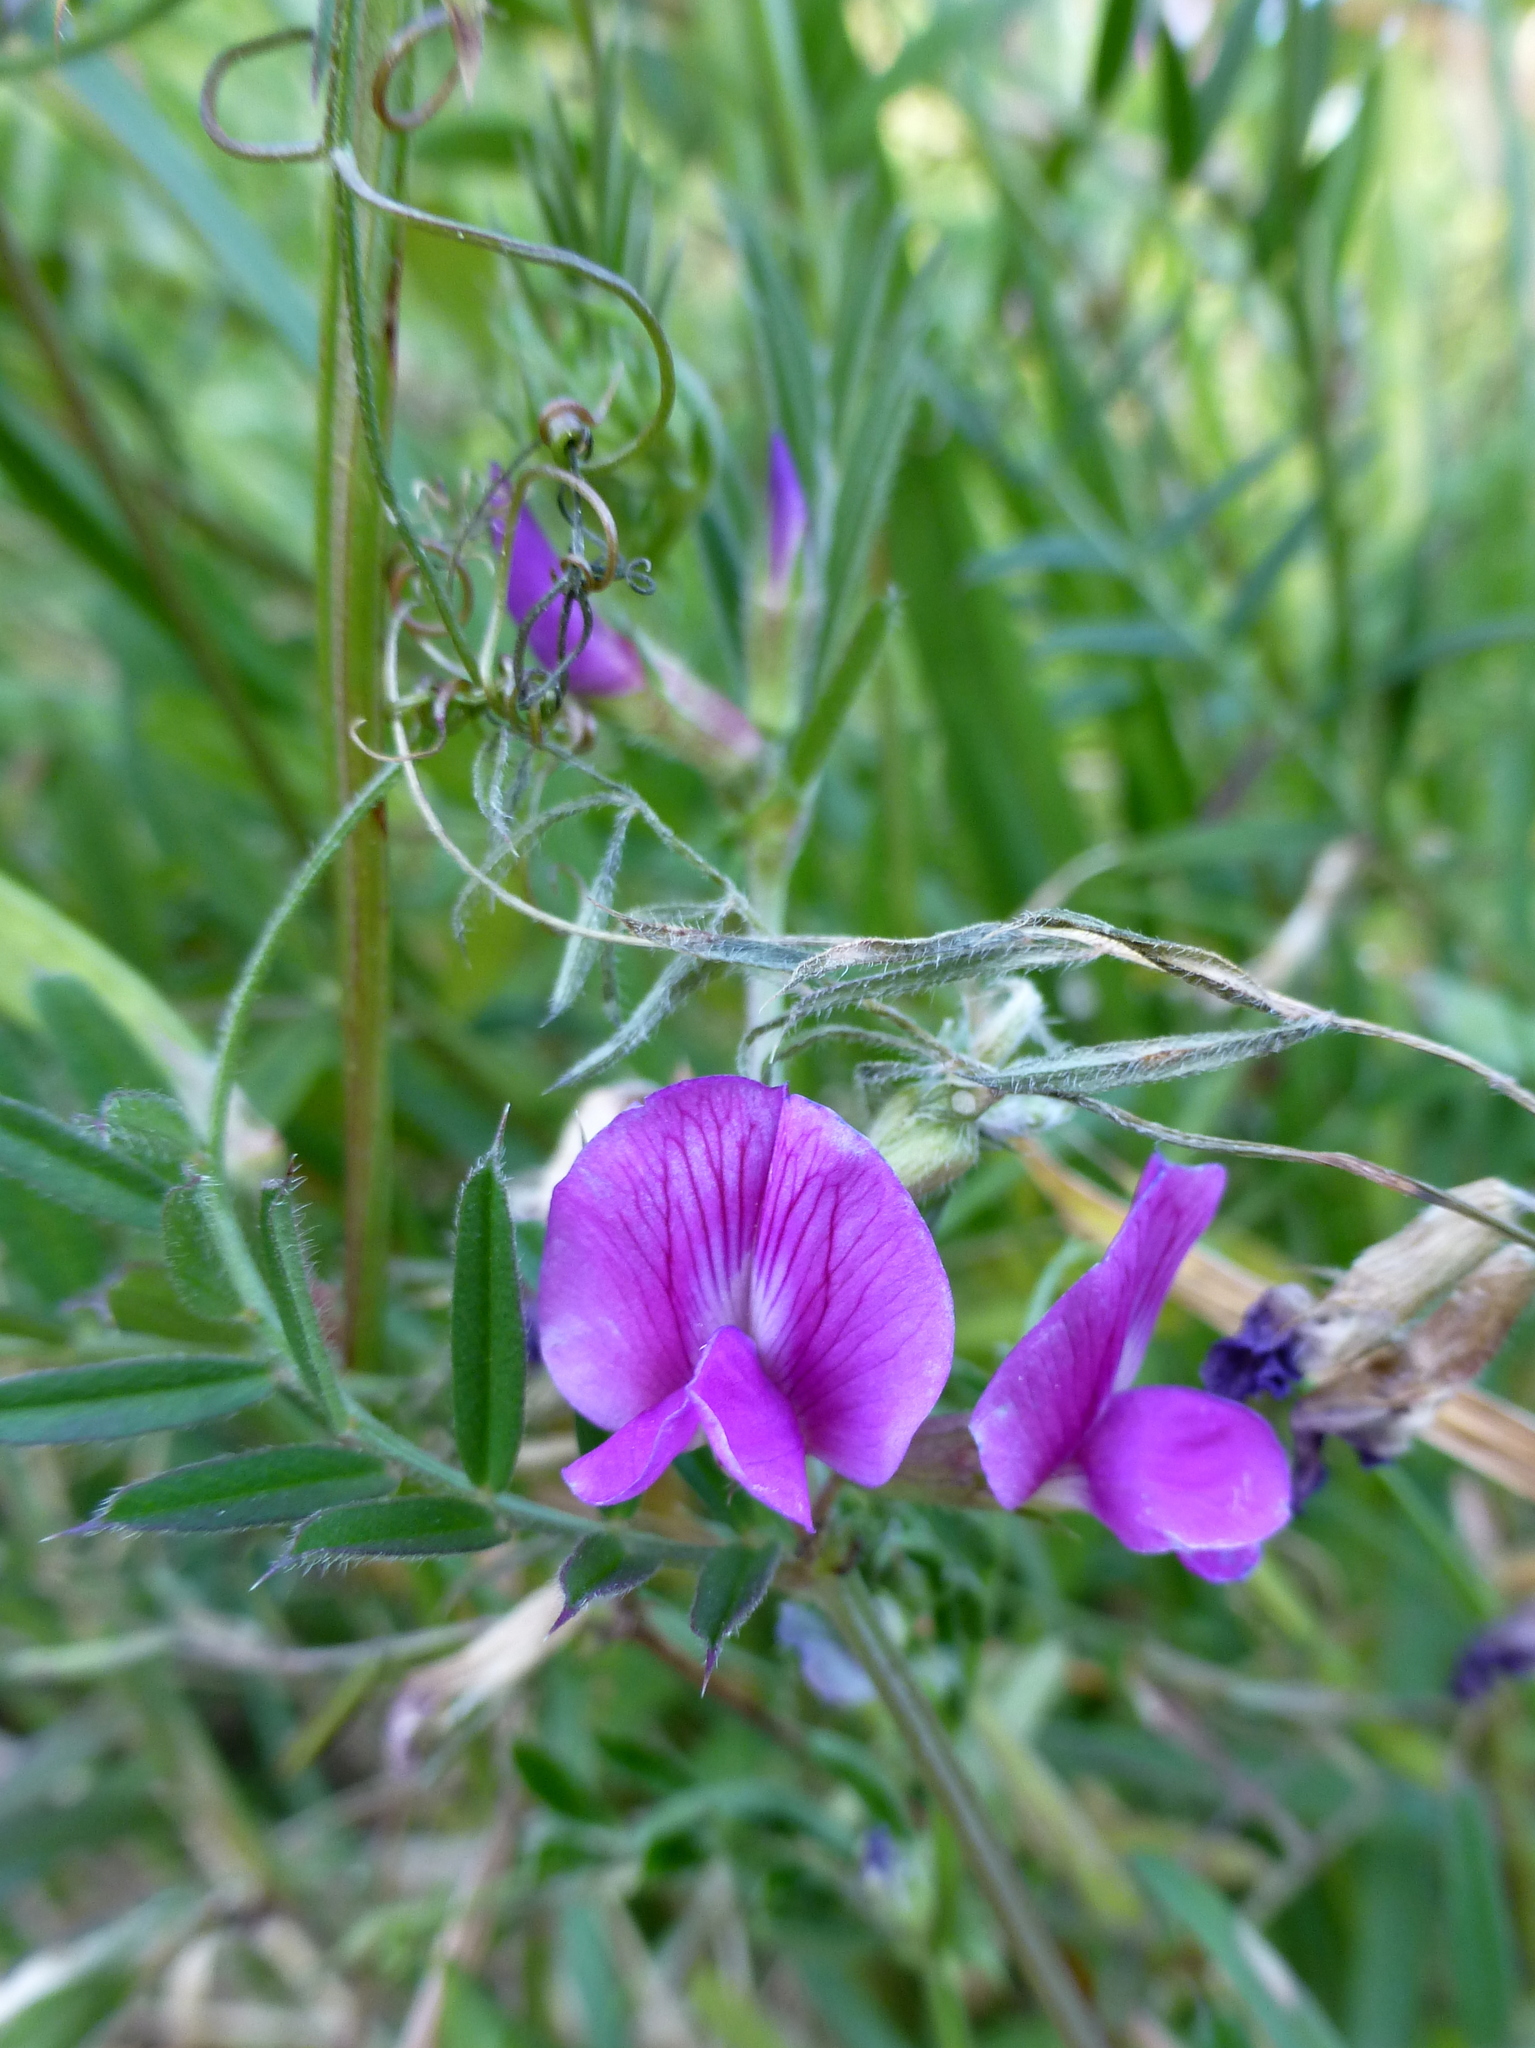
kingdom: Plantae
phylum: Tracheophyta
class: Magnoliopsida
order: Fabales
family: Fabaceae
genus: Vicia
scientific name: Vicia sativa
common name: Garden vetch
